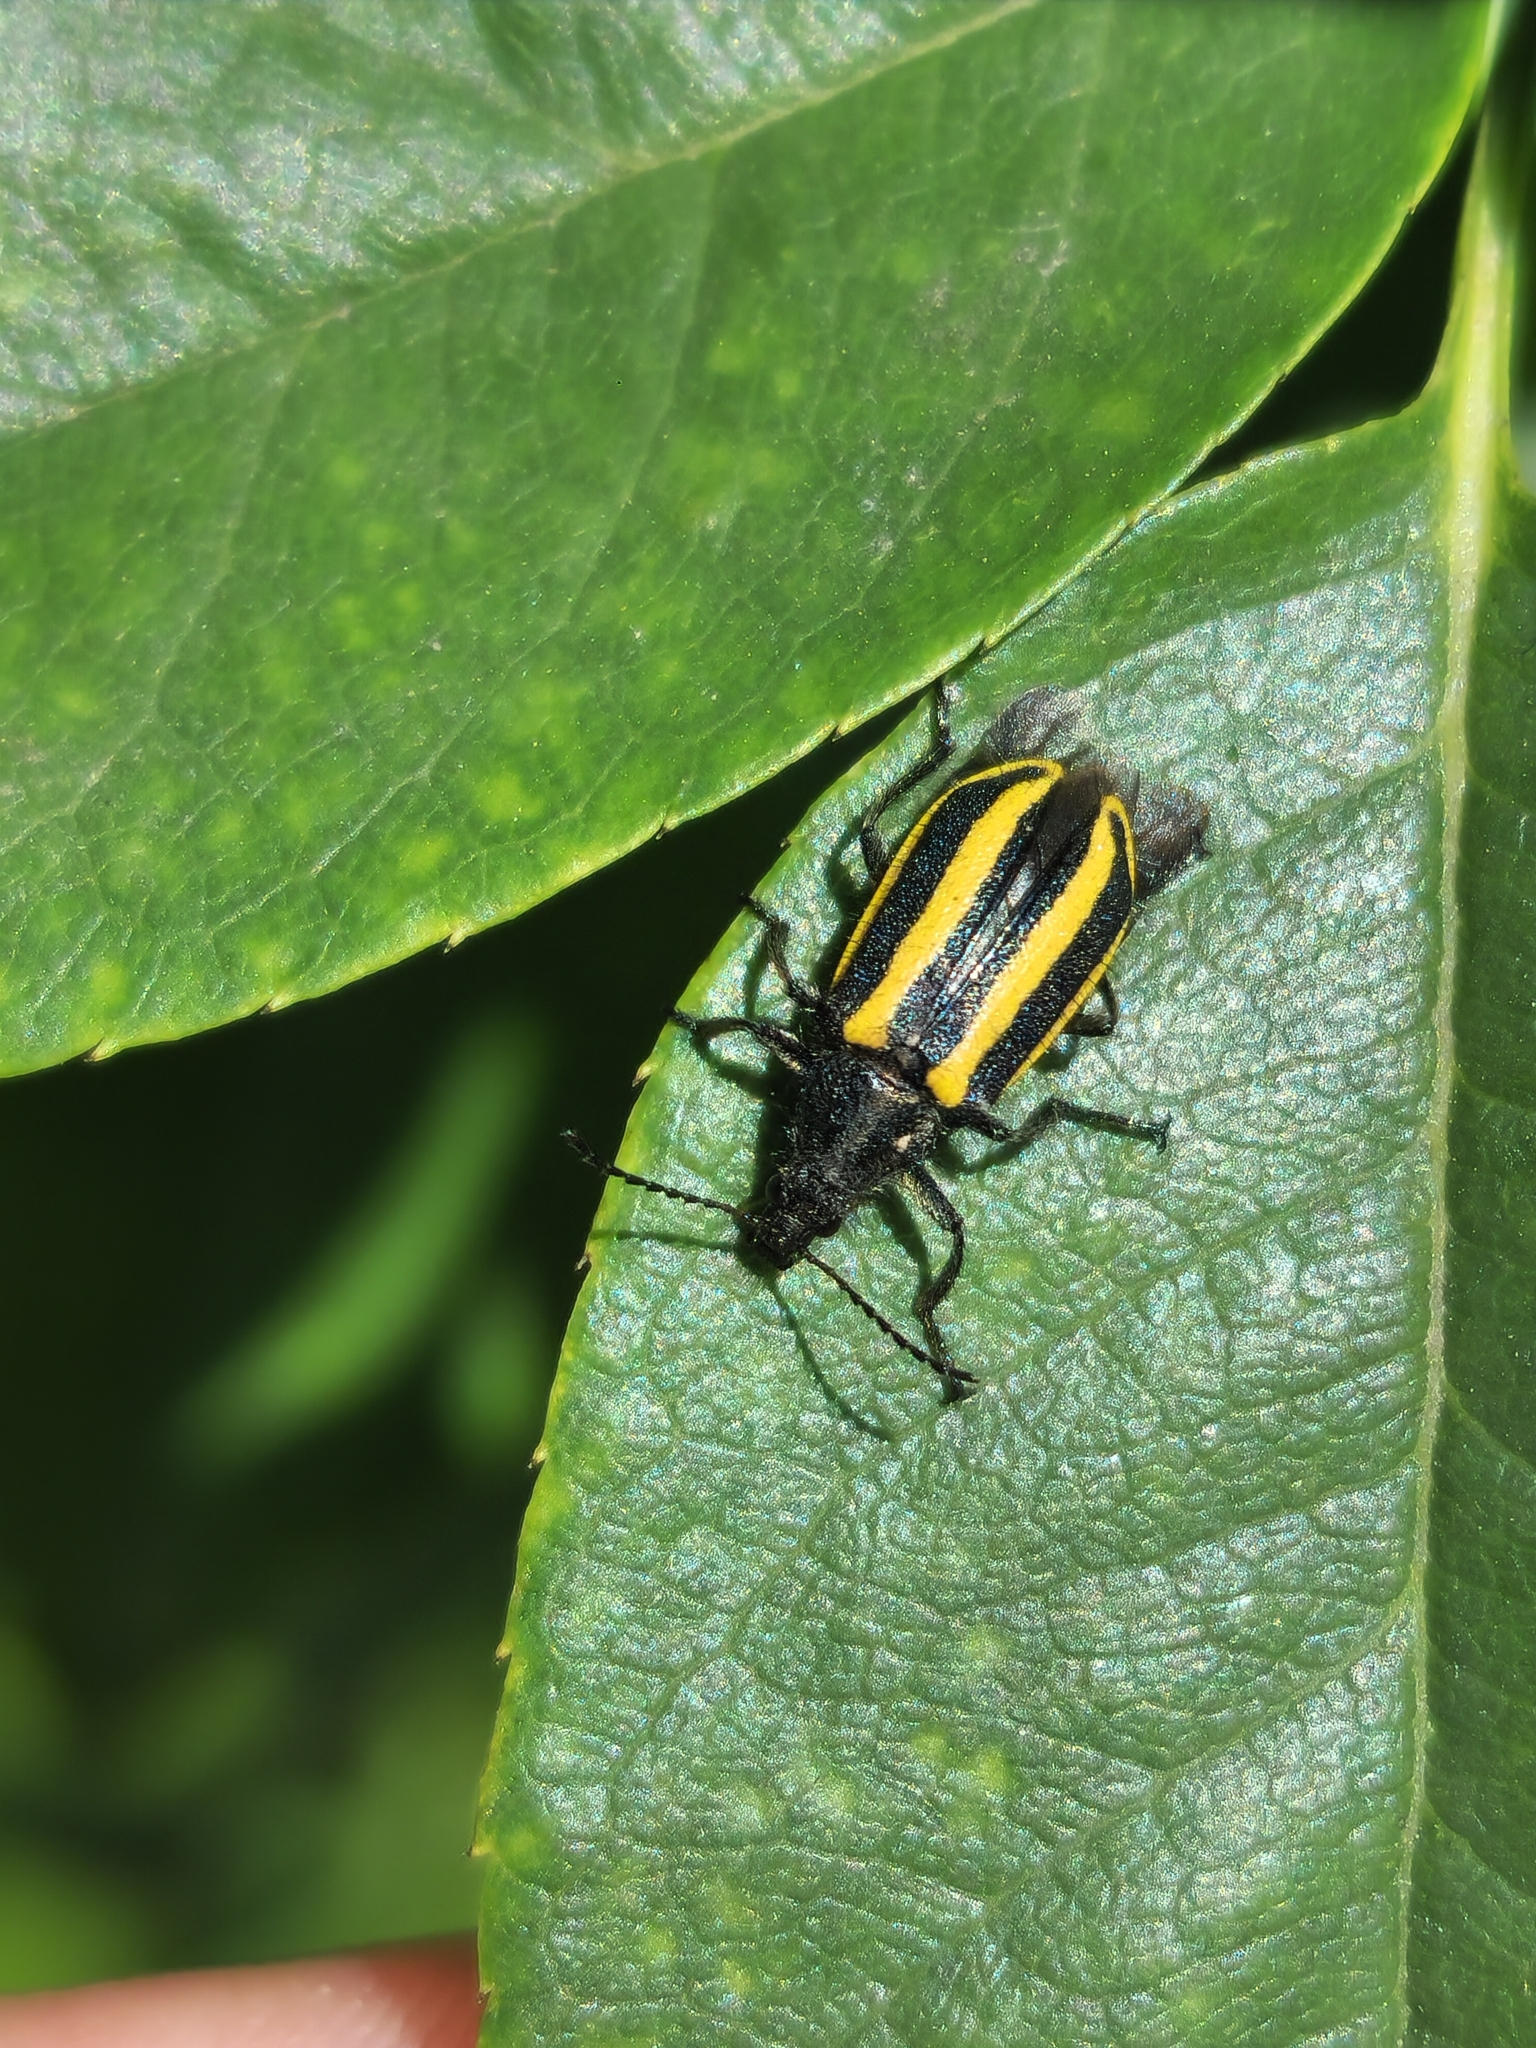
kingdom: Animalia
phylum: Arthropoda
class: Insecta
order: Coleoptera
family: Melyridae
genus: Astylus
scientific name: Astylus vittaticollis
